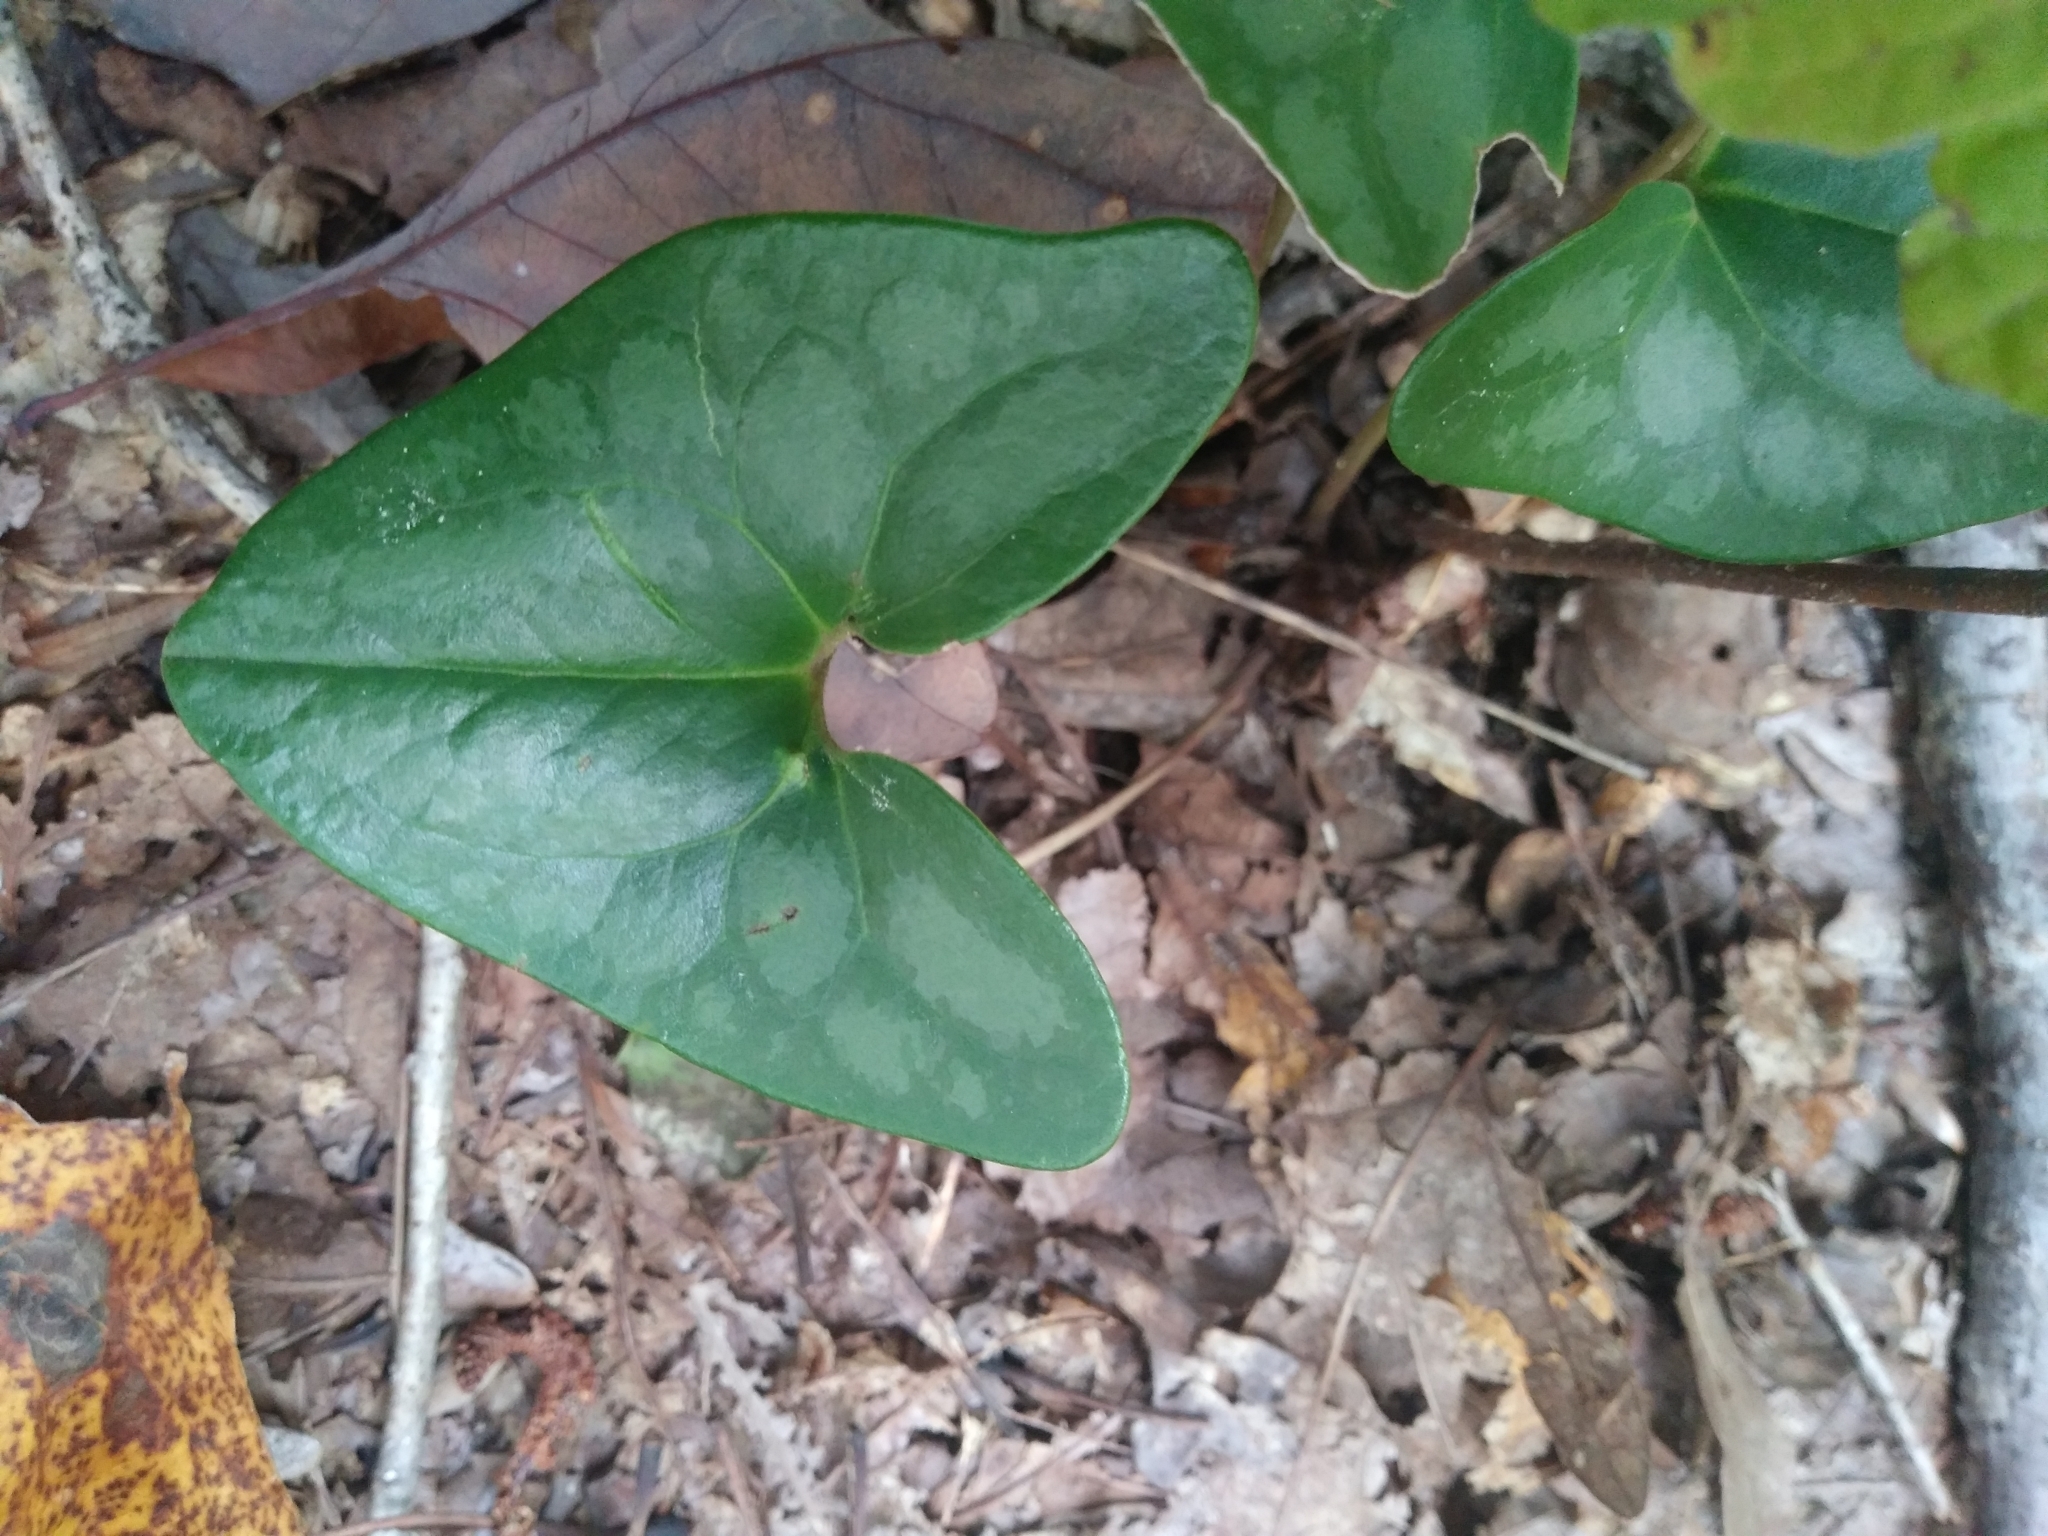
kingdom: Plantae
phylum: Tracheophyta
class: Magnoliopsida
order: Piperales
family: Aristolochiaceae
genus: Hexastylis
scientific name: Hexastylis arifolia
